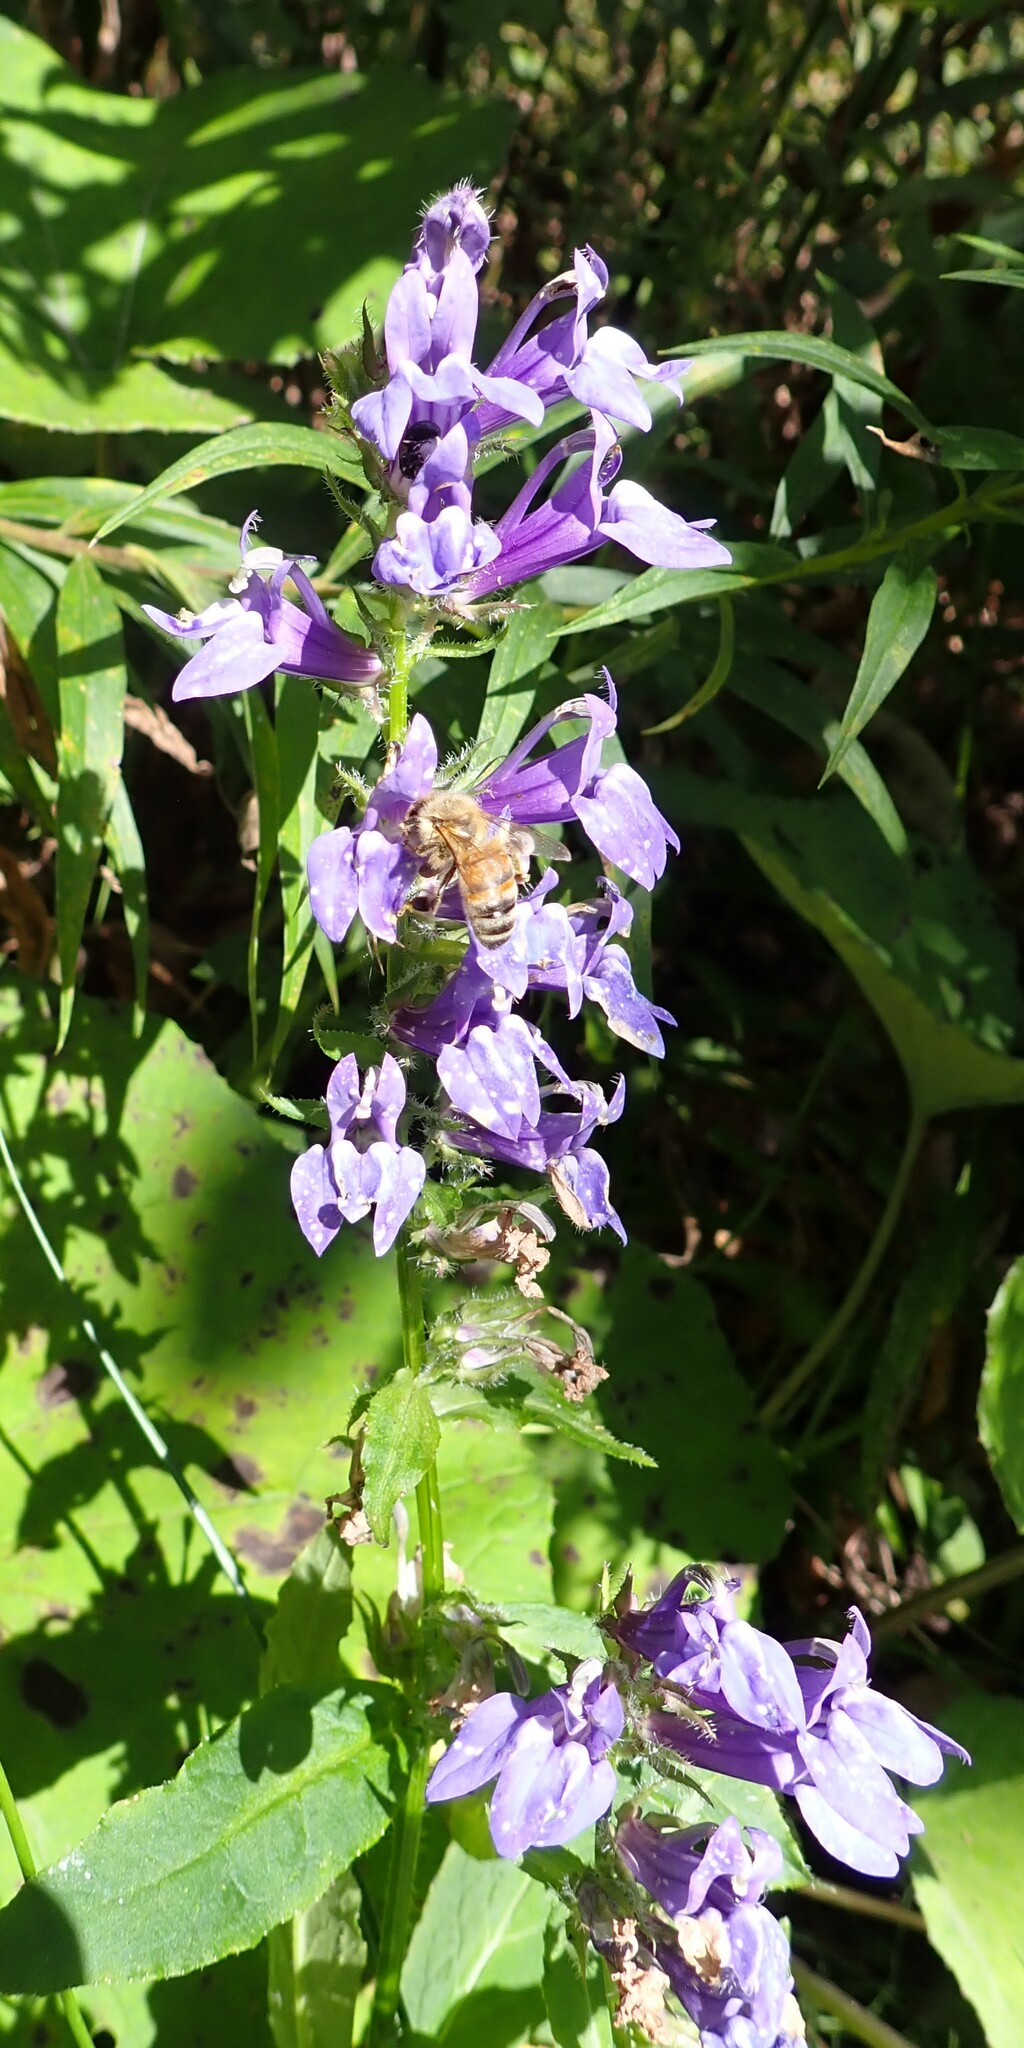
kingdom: Plantae
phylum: Tracheophyta
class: Magnoliopsida
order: Asterales
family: Campanulaceae
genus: Lobelia
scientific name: Lobelia siphilitica
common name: Great lobelia
